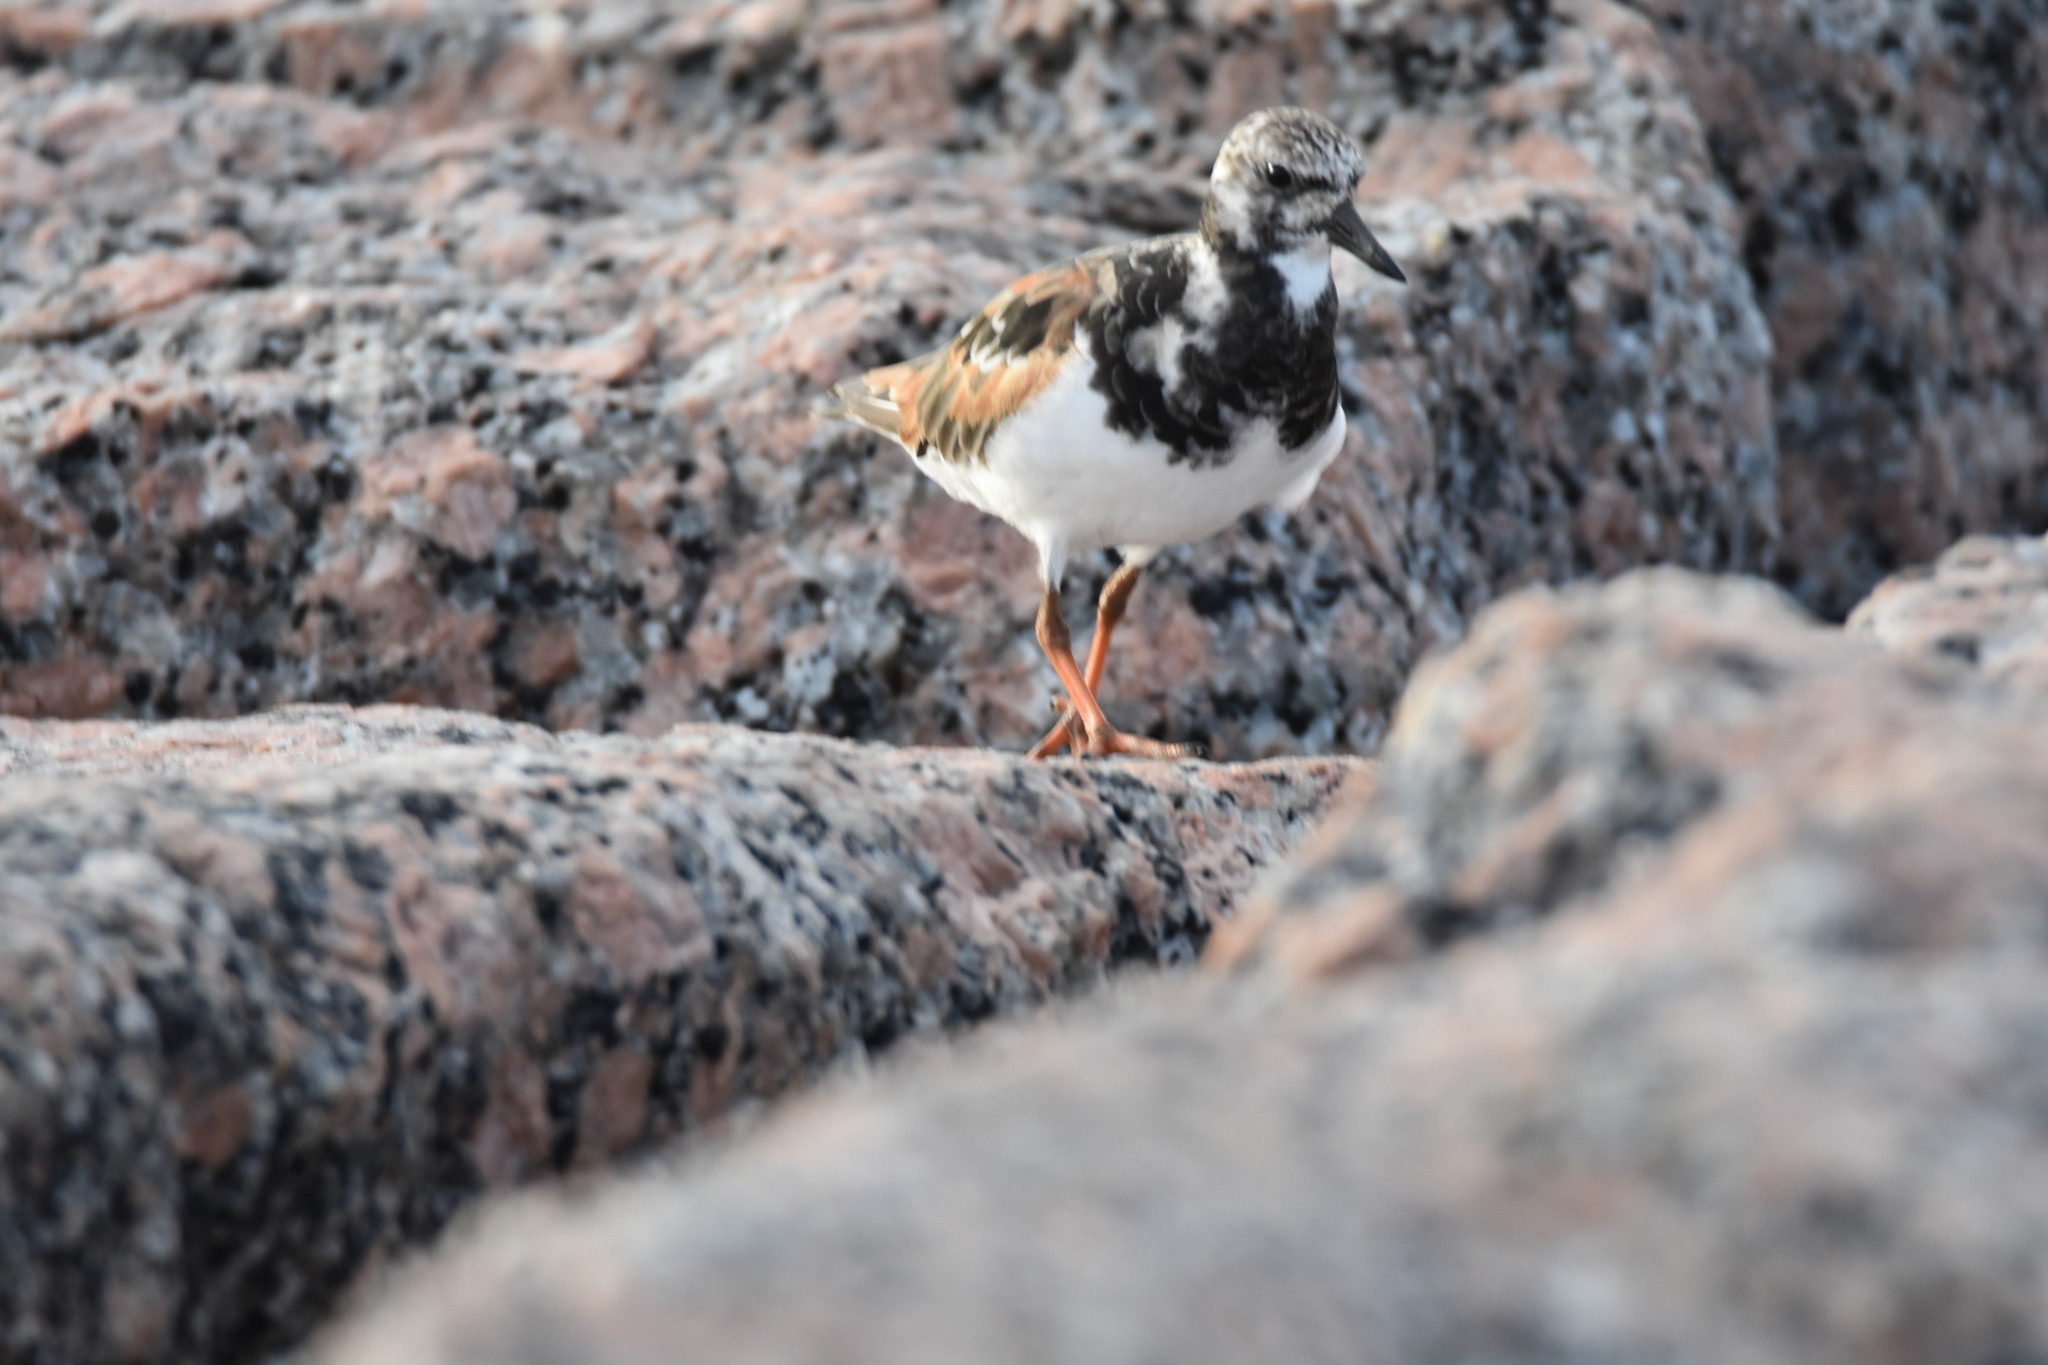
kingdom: Animalia
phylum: Chordata
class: Aves
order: Charadriiformes
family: Scolopacidae
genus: Arenaria
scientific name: Arenaria interpres
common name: Ruddy turnstone
